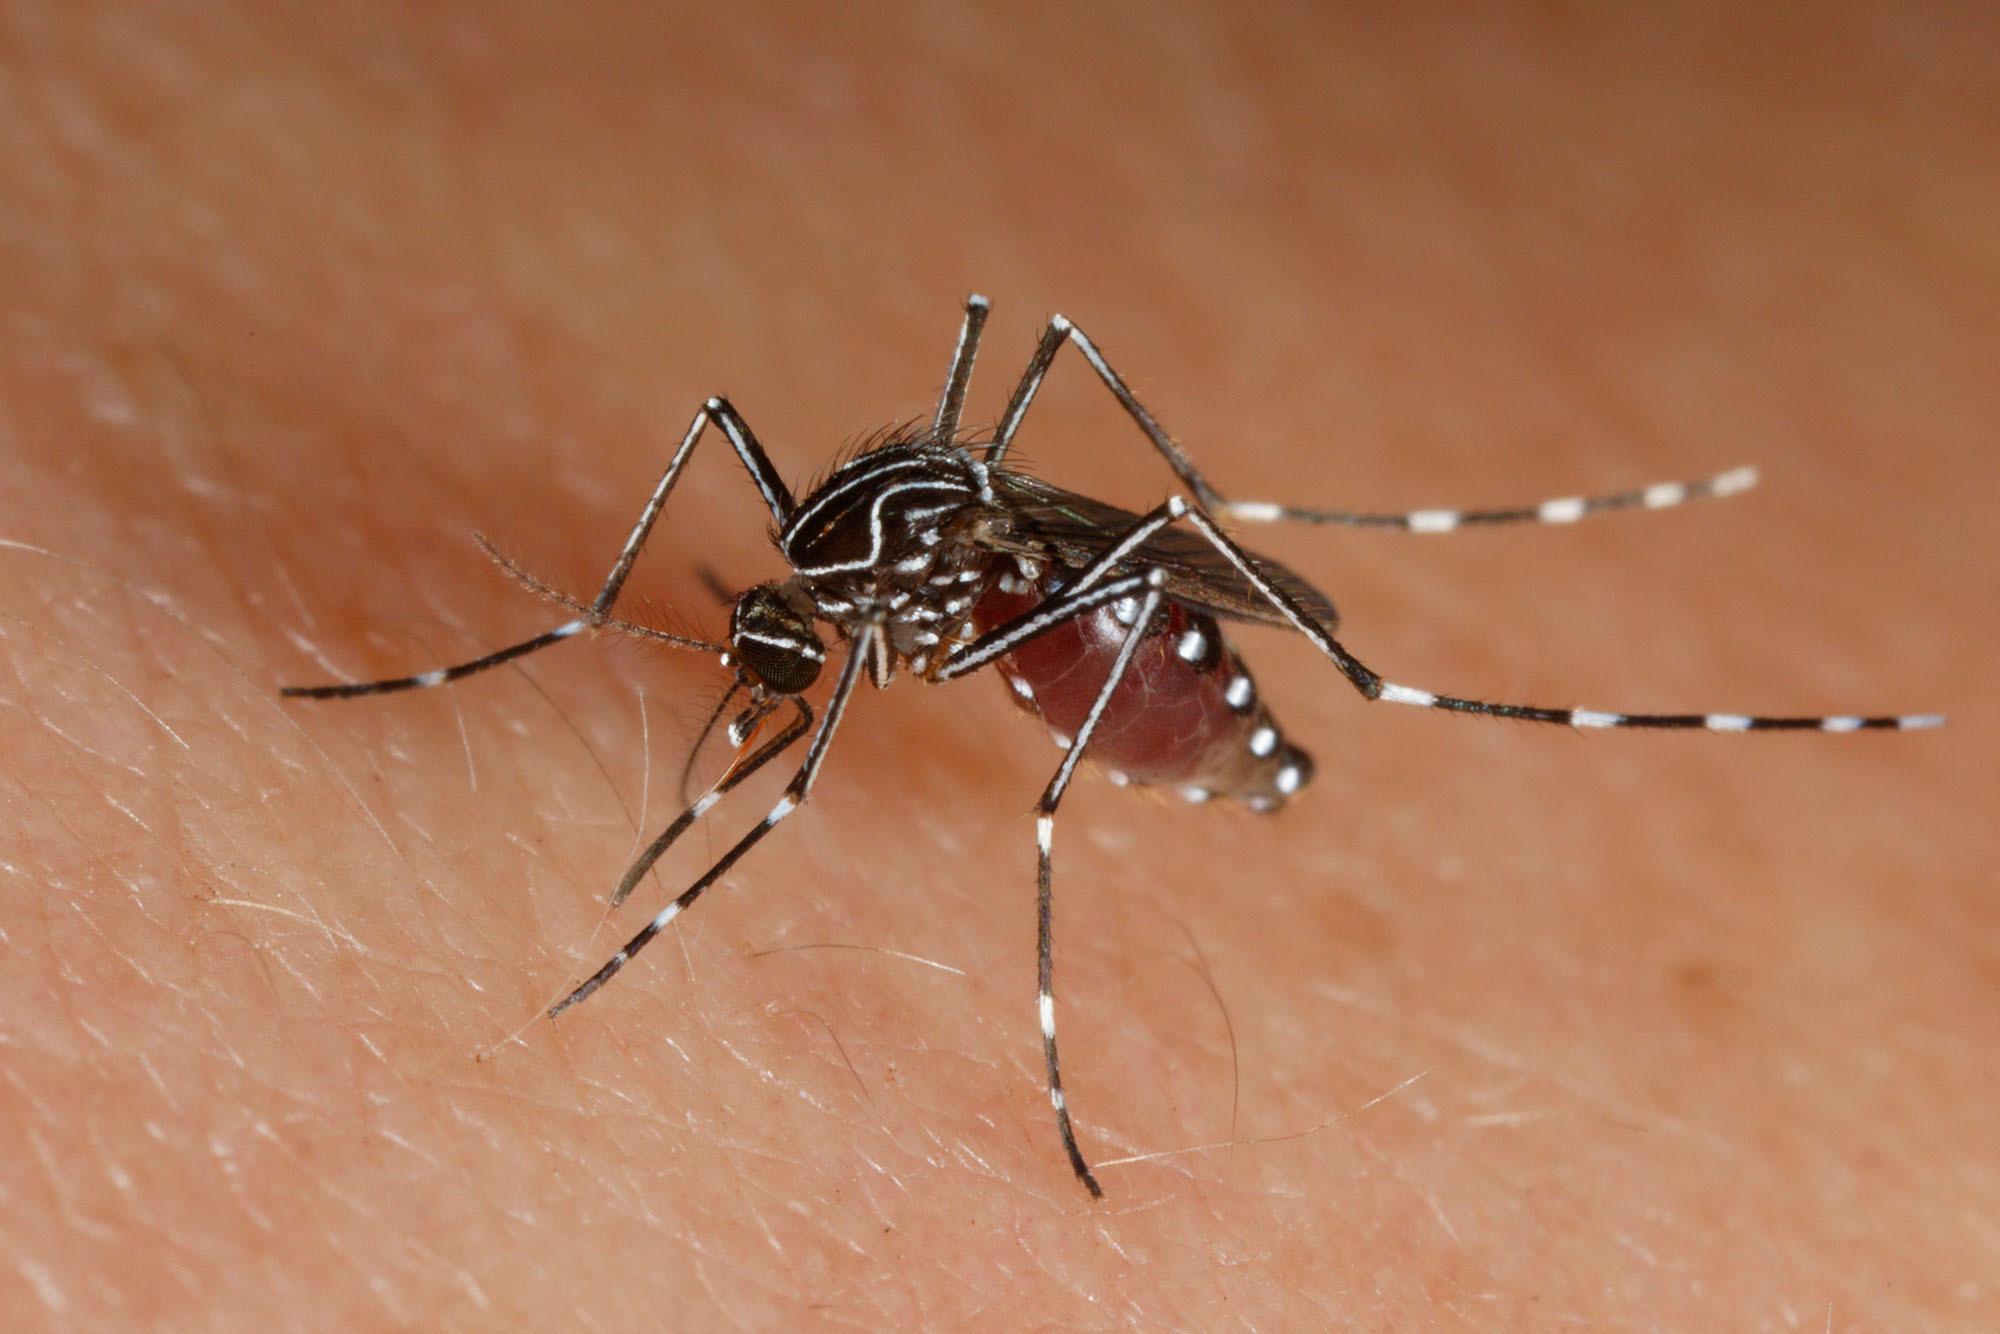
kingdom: Animalia
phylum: Arthropoda
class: Insecta
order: Diptera
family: Culicidae
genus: Aedes
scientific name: Aedes notoscriptus
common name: Australian backyard mosquito
